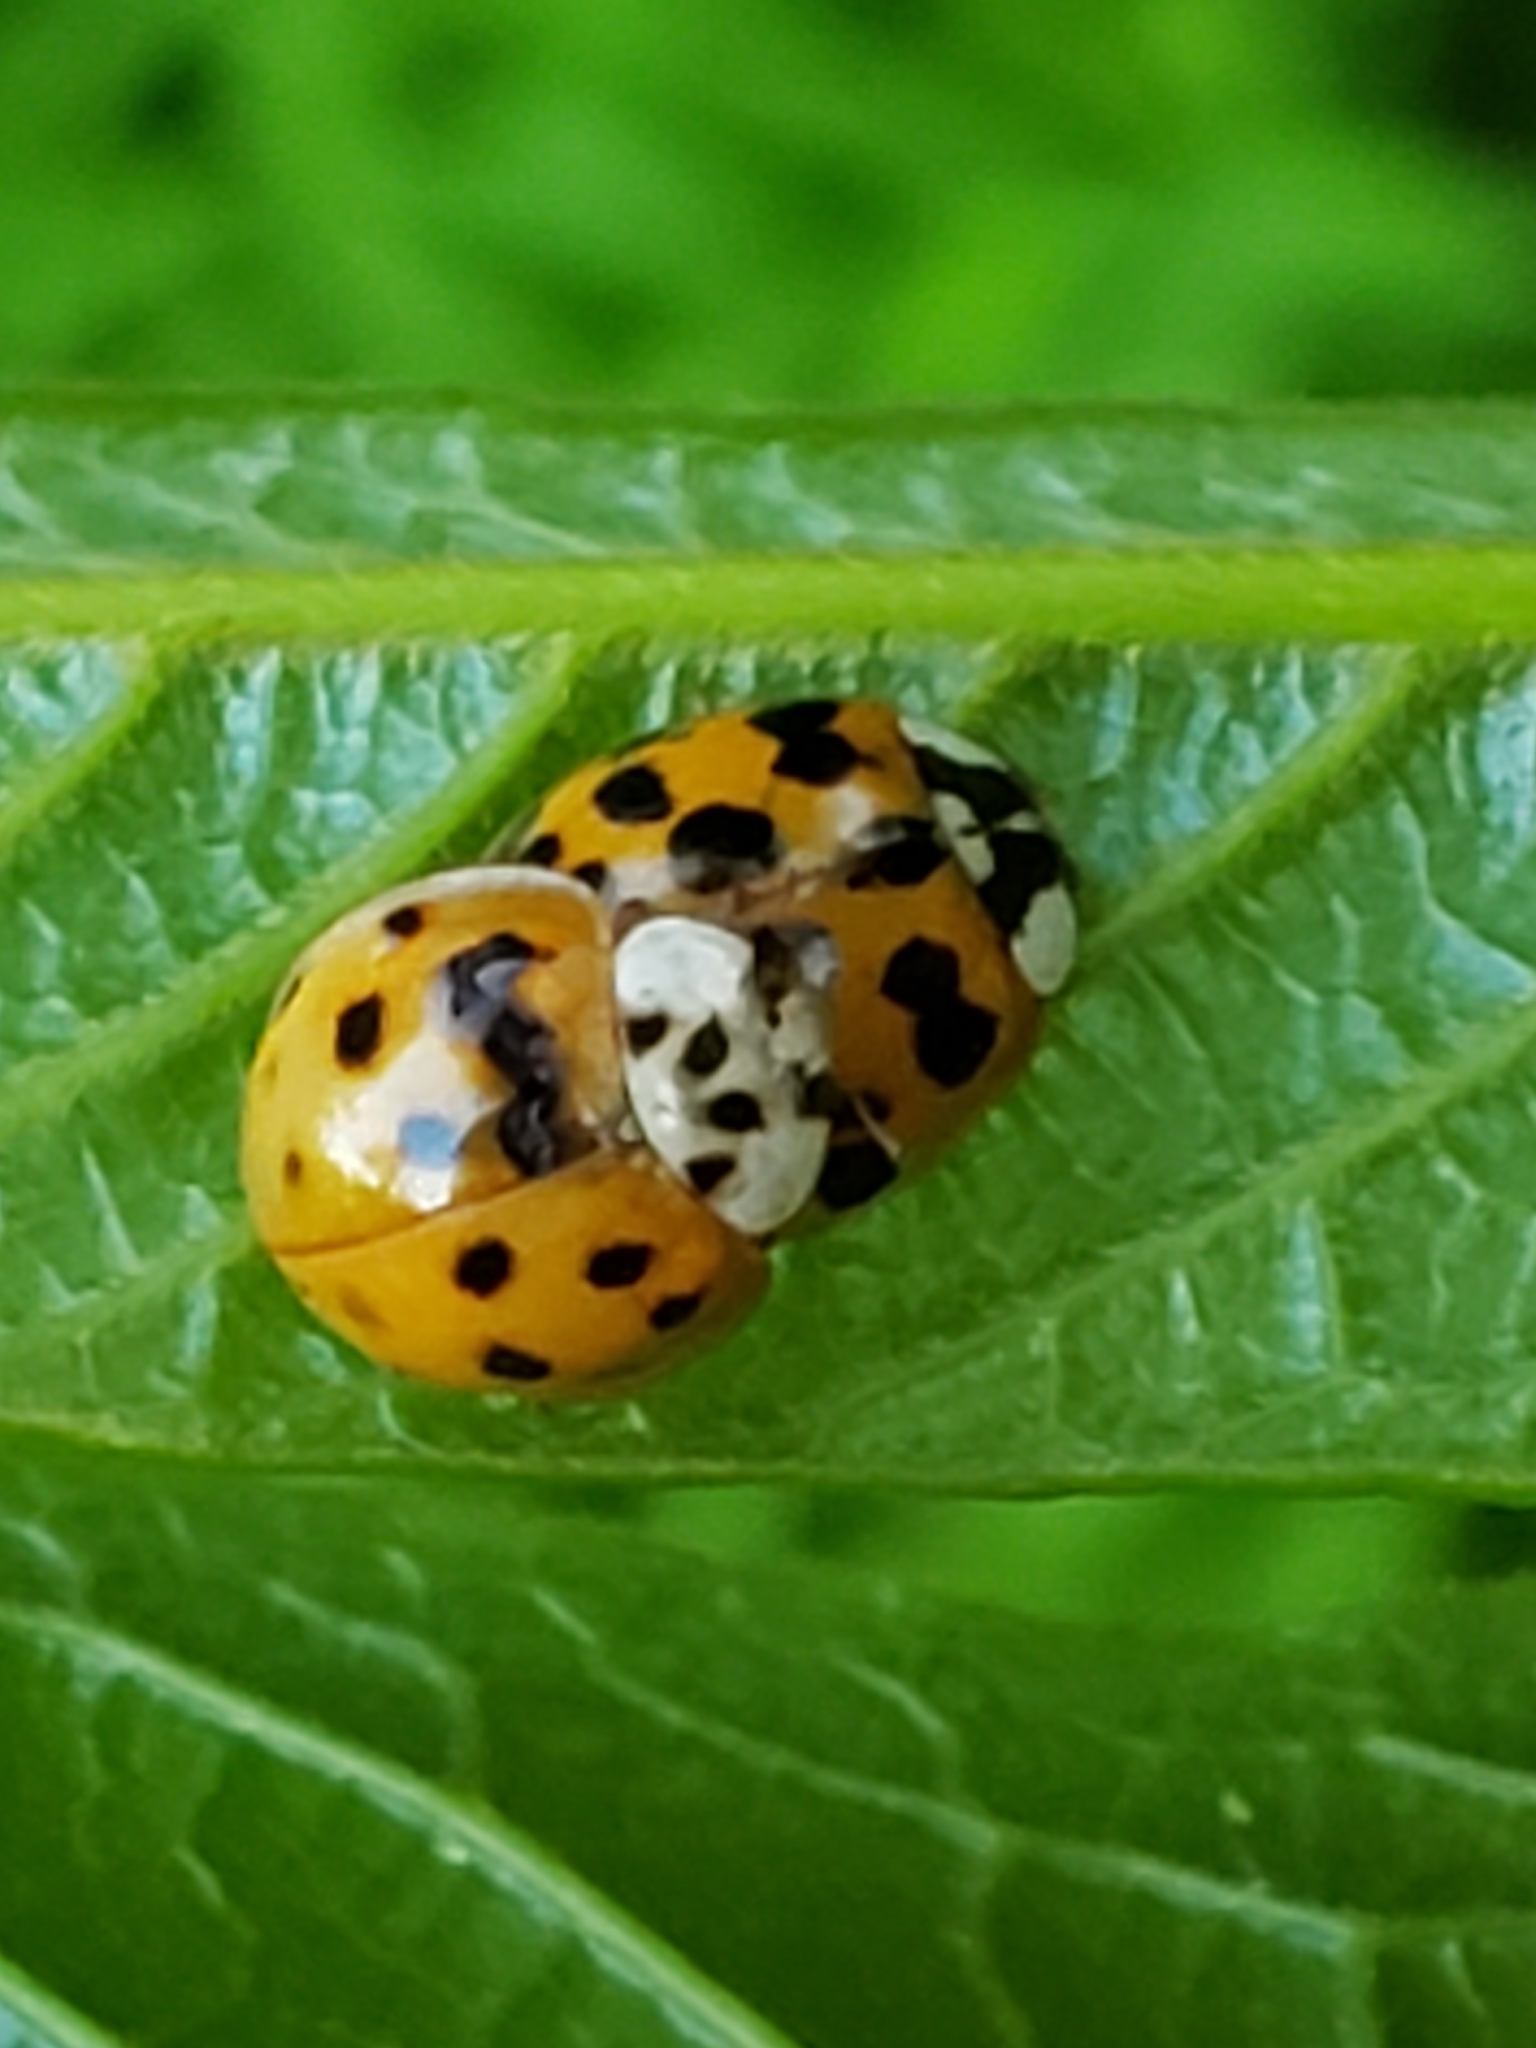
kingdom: Animalia
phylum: Arthropoda
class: Insecta
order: Coleoptera
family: Coccinellidae
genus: Harmonia
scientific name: Harmonia axyridis
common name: Harlequin ladybird
